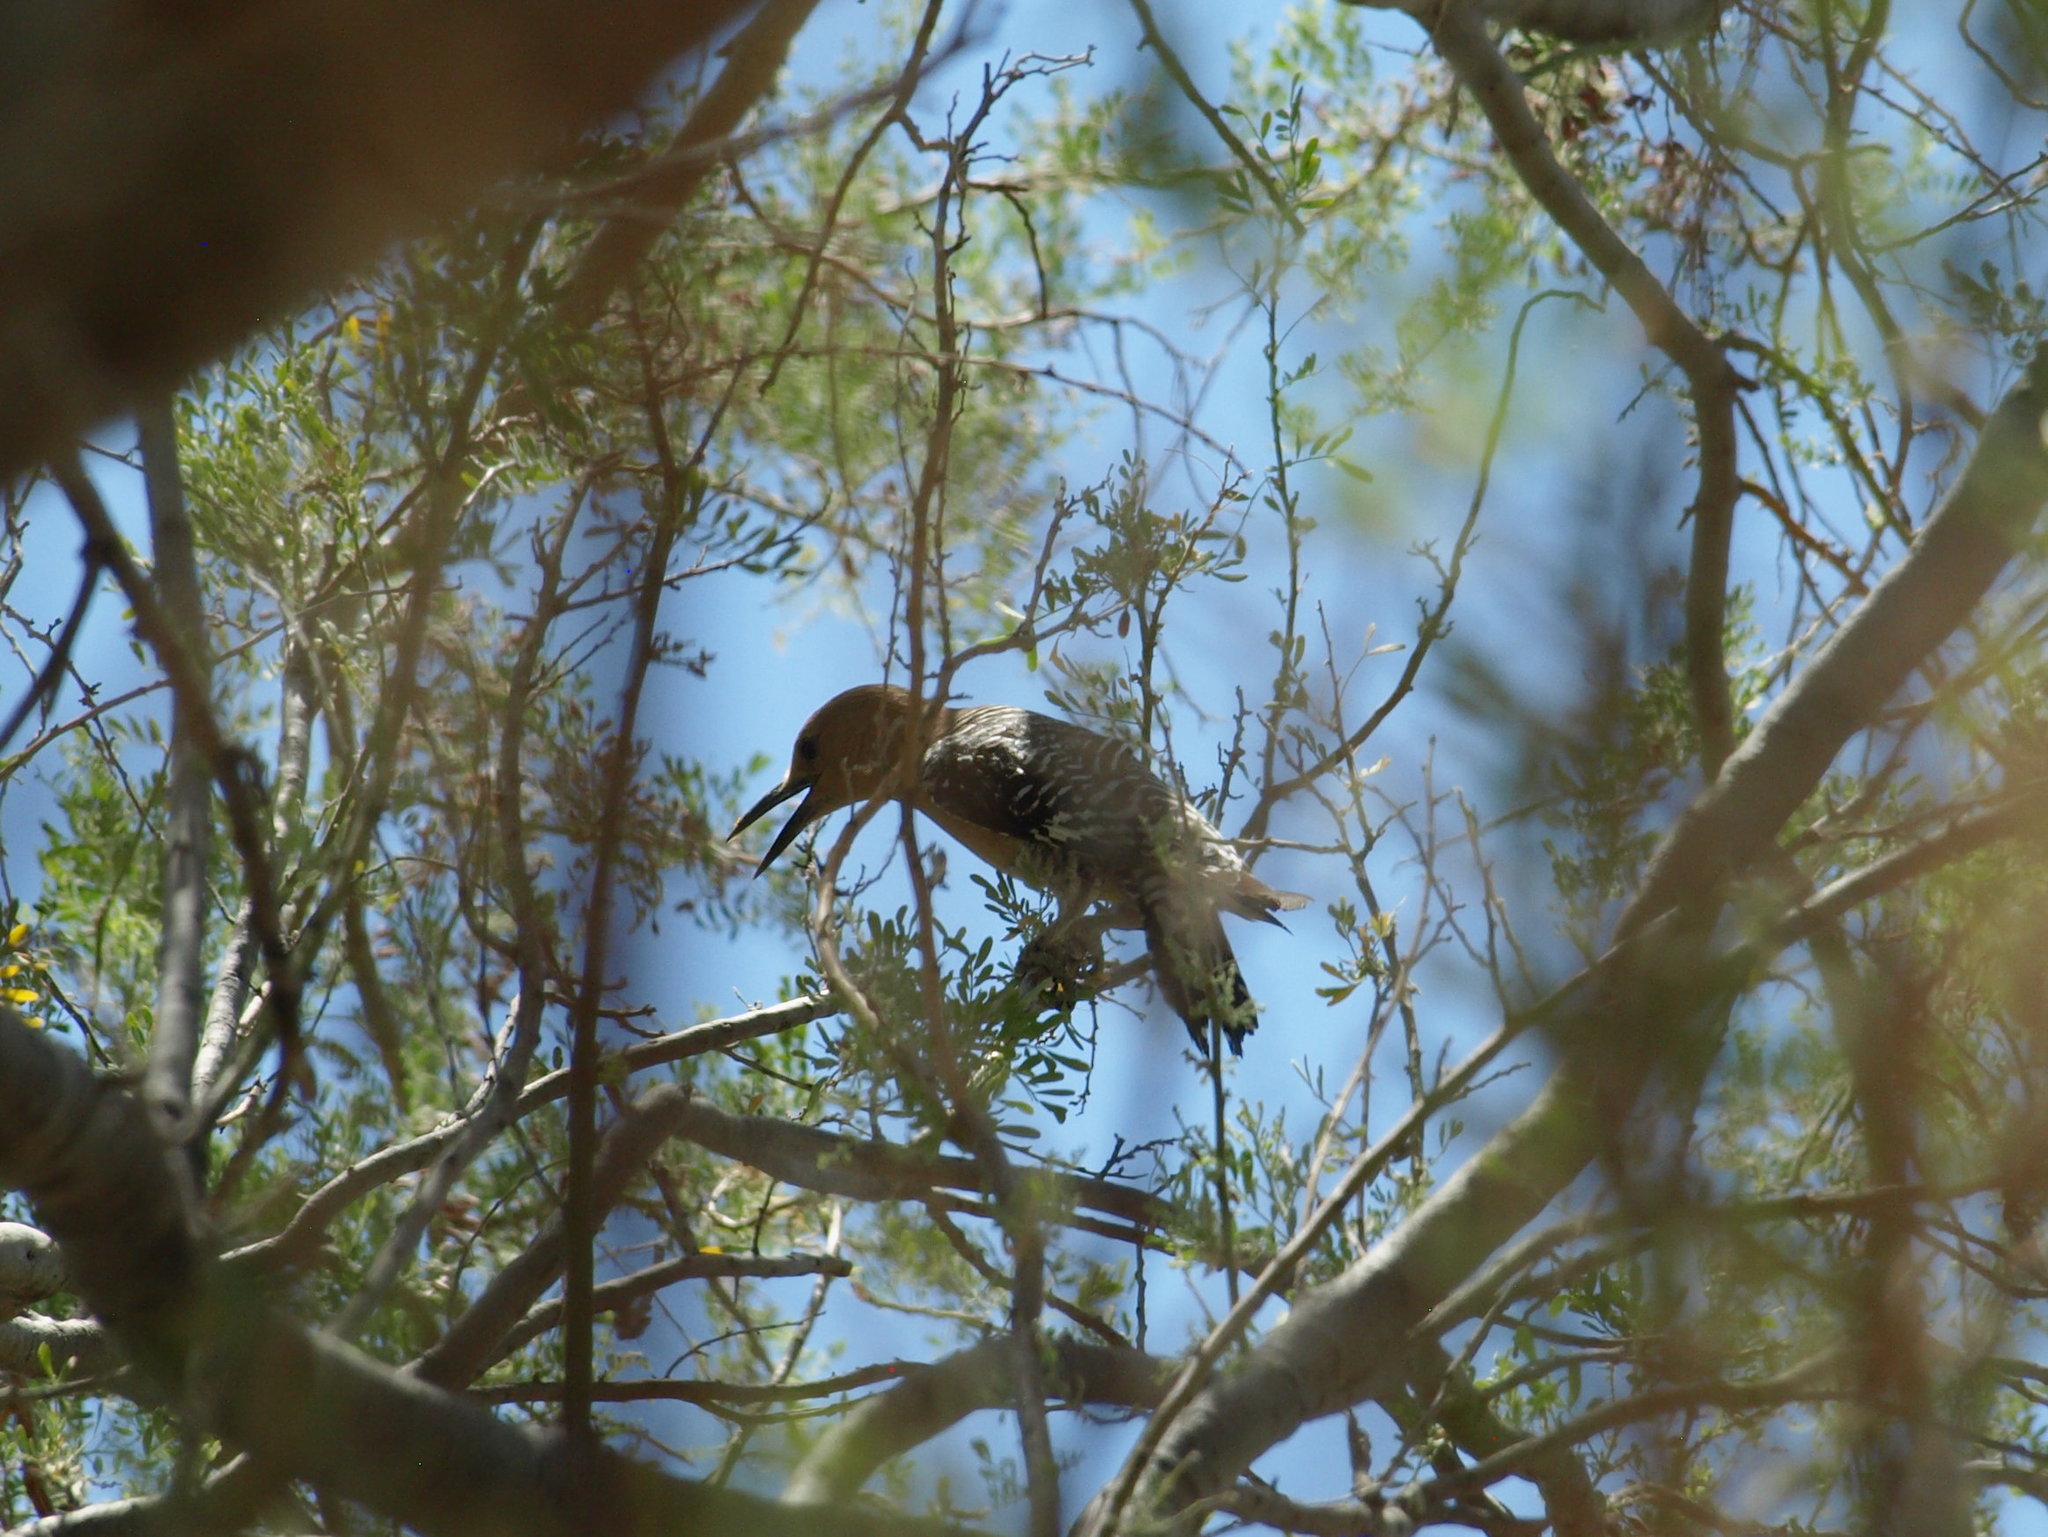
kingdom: Animalia
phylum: Chordata
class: Aves
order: Piciformes
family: Picidae
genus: Melanerpes
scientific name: Melanerpes uropygialis
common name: Gila woodpecker
